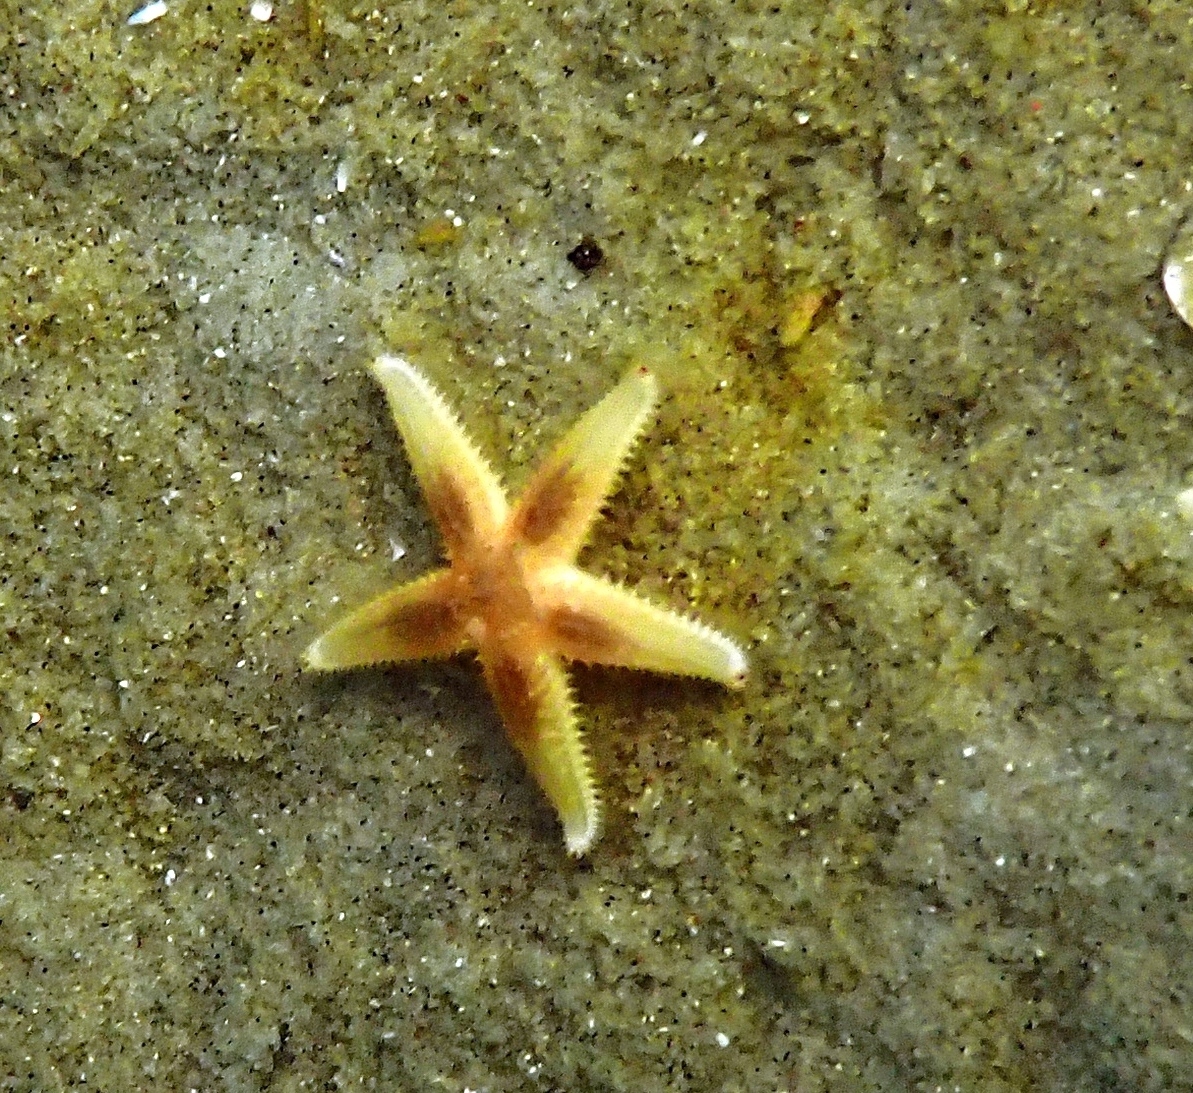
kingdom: Animalia
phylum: Echinodermata
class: Asteroidea
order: Forcipulatida
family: Asteriidae
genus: Asterias
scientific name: Asterias rubens
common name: Common starfish
